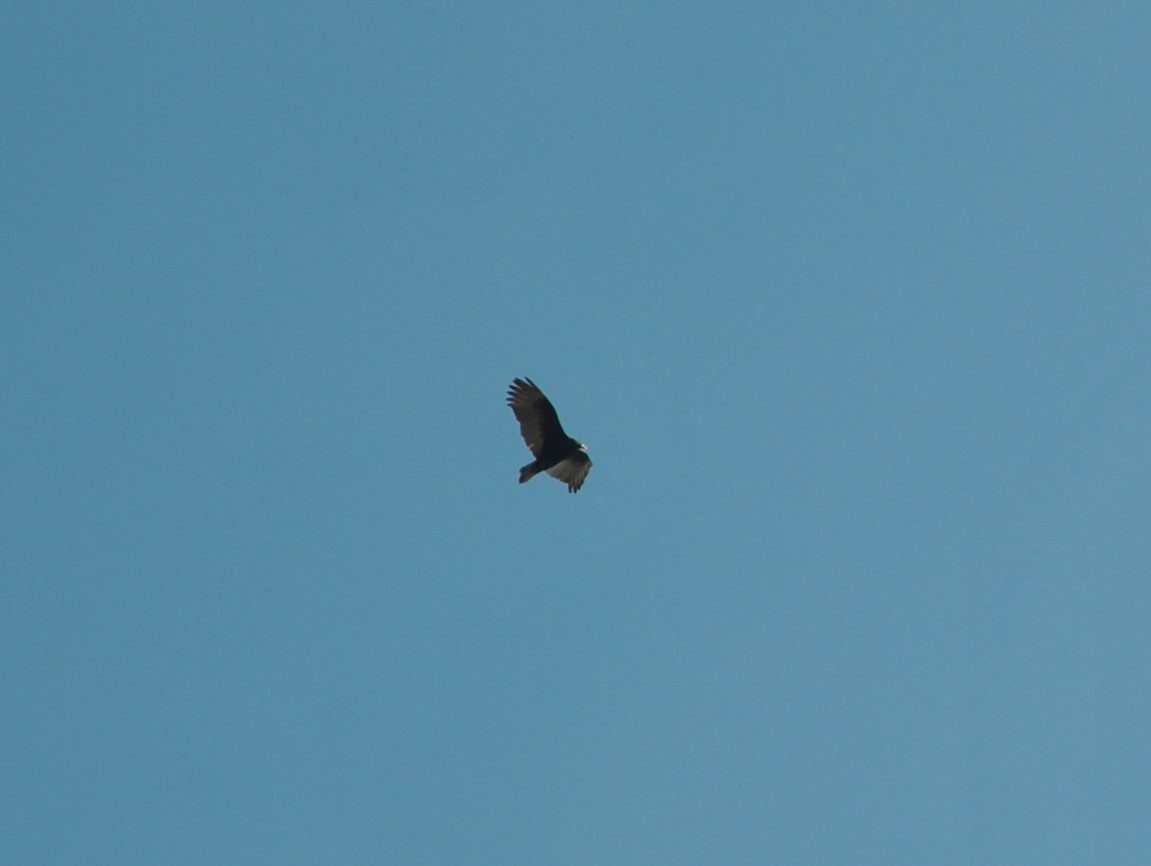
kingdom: Animalia
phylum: Chordata
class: Aves
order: Accipitriformes
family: Cathartidae
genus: Cathartes
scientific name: Cathartes aura
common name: Turkey vulture
